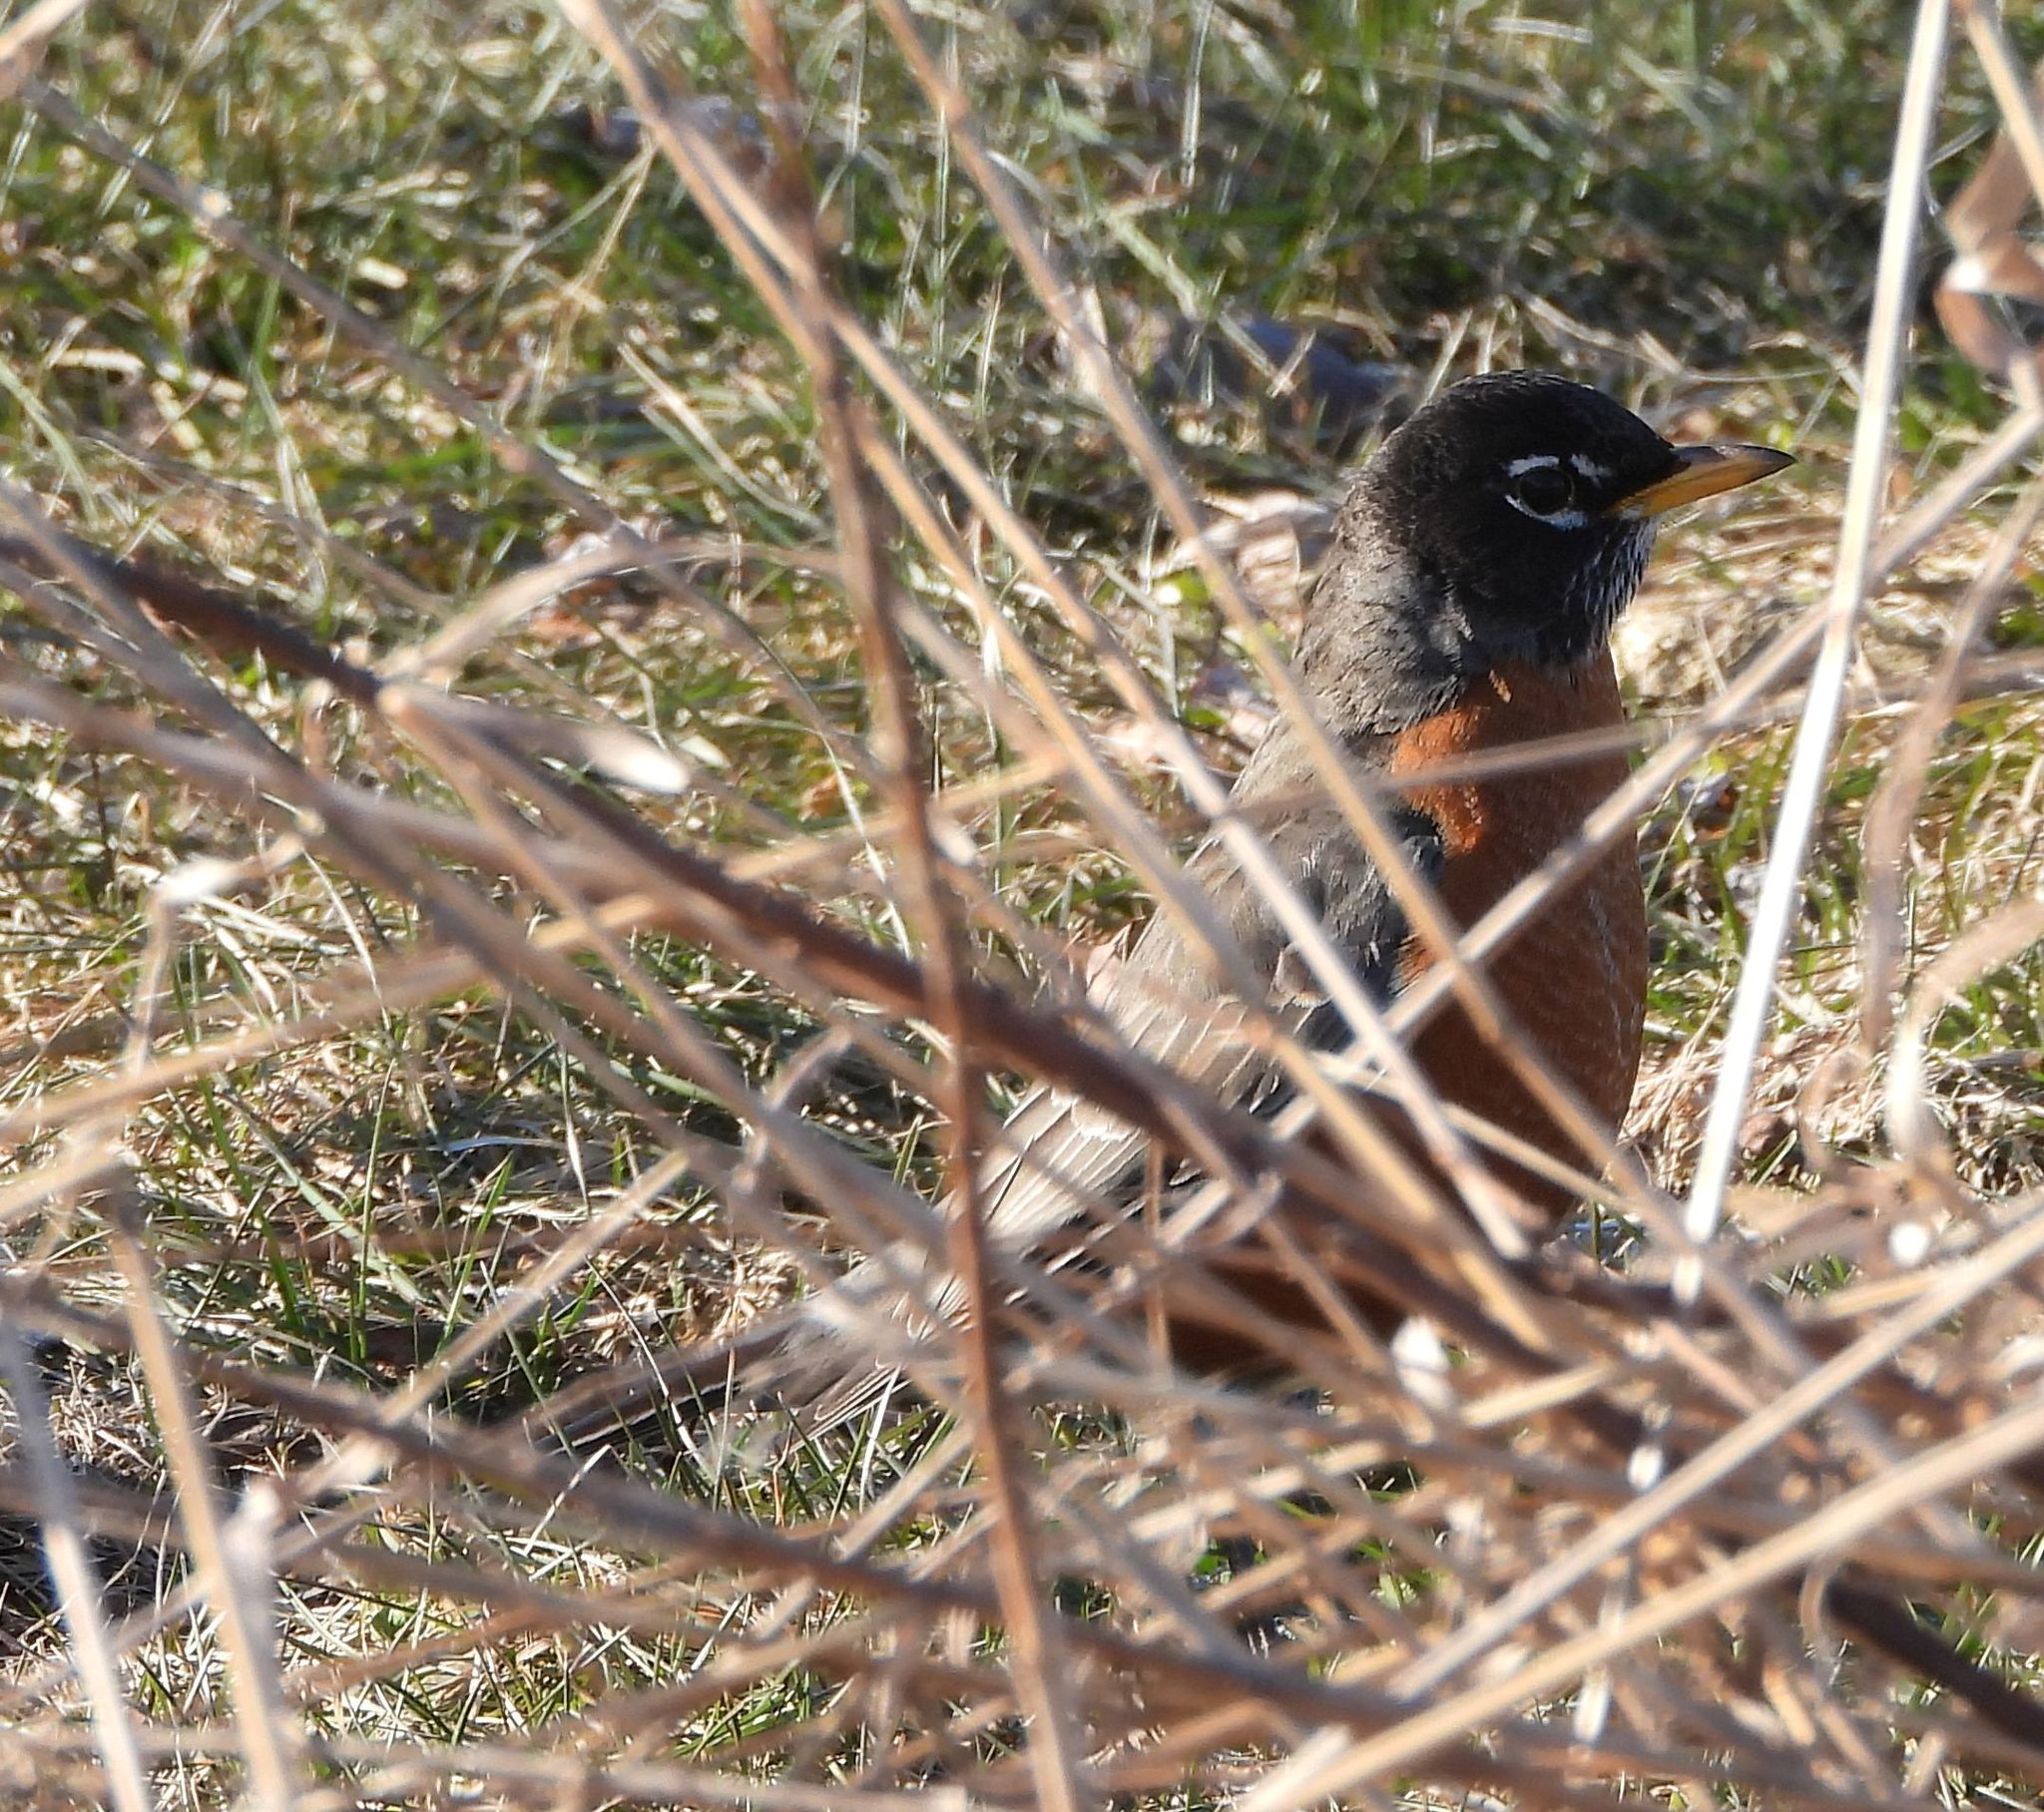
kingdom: Animalia
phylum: Chordata
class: Aves
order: Passeriformes
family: Turdidae
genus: Turdus
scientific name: Turdus migratorius
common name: American robin
